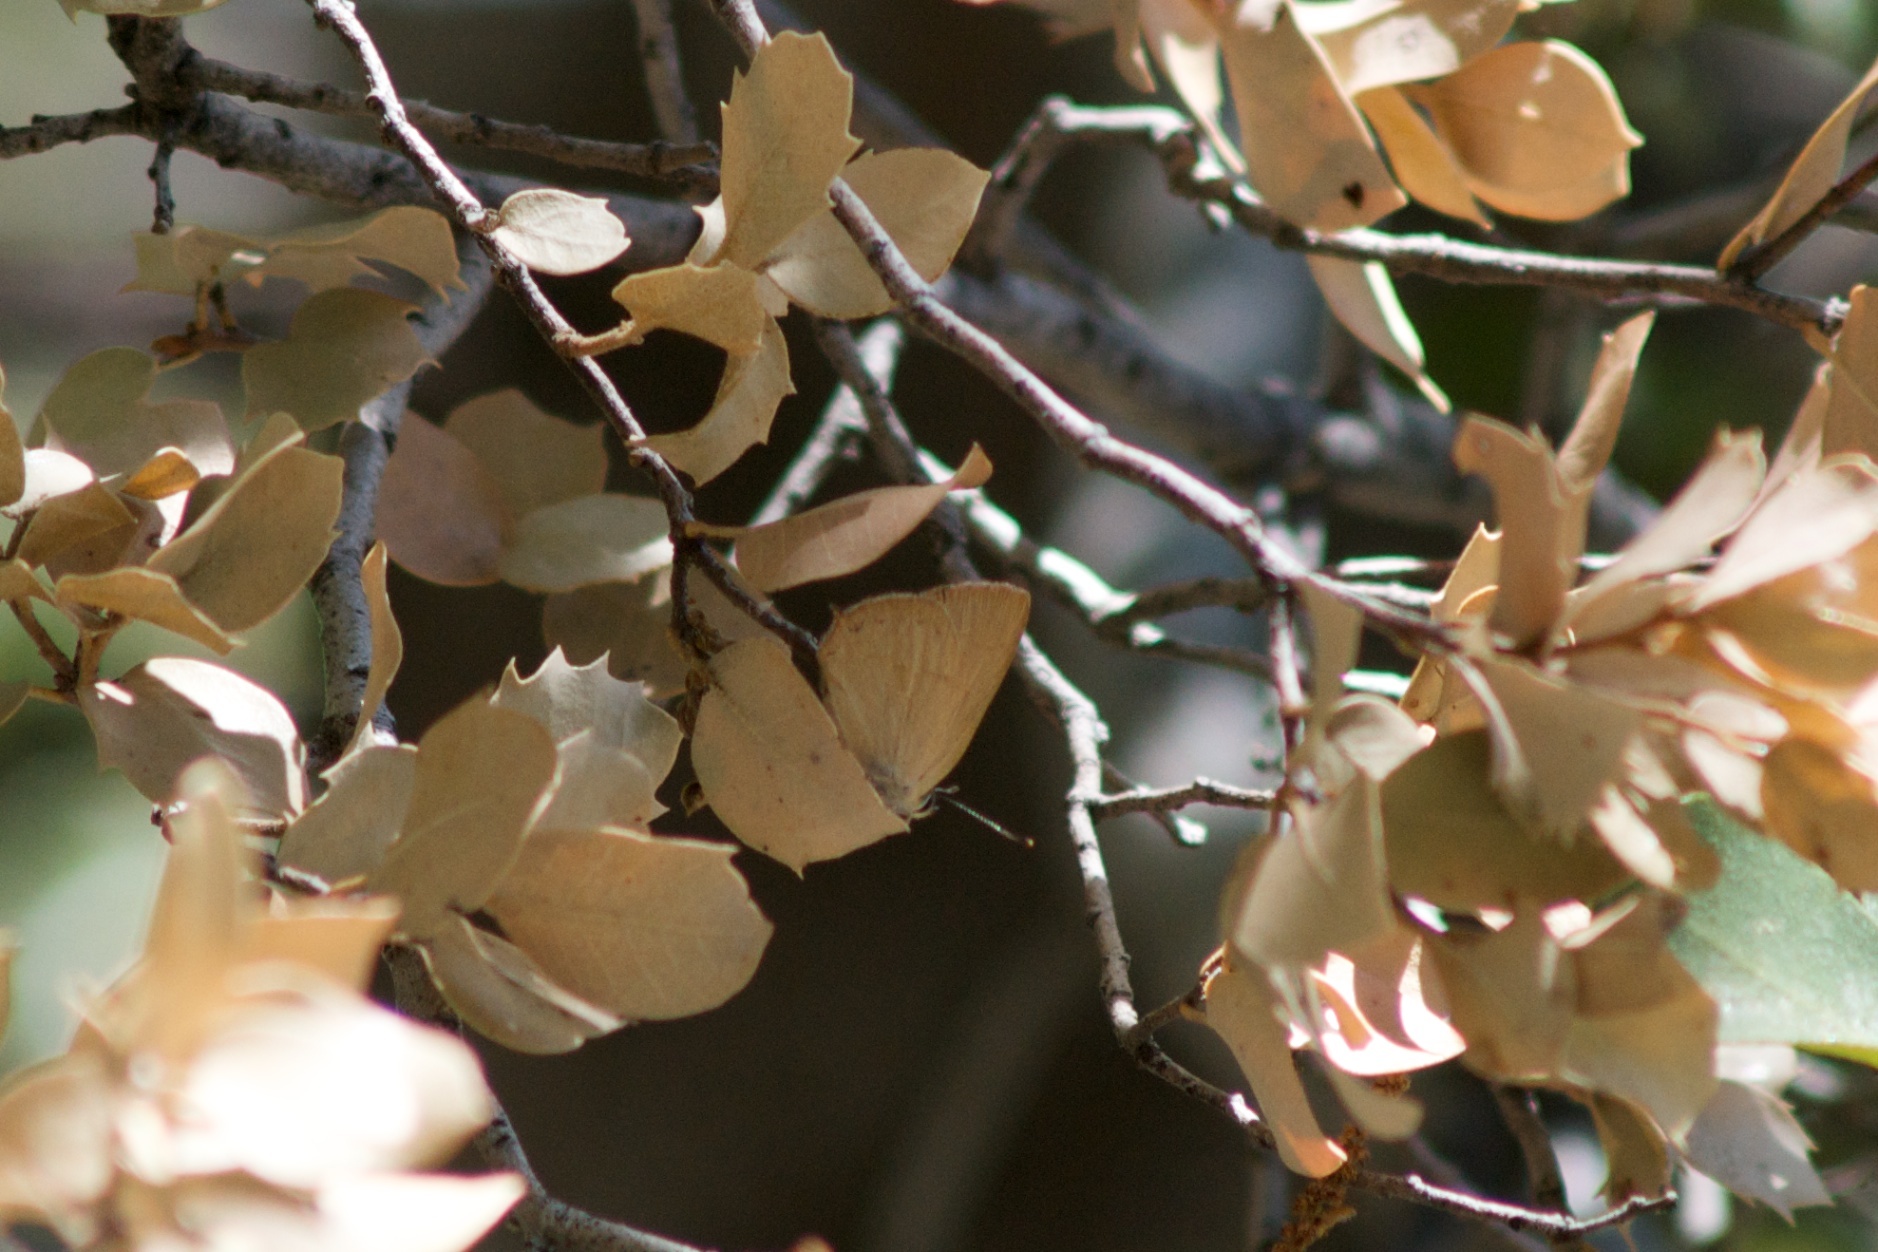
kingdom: Animalia
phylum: Arthropoda
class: Insecta
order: Lepidoptera
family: Lycaenidae
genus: Habrodais
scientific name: Habrodais grunus
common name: Golden hairstreak
